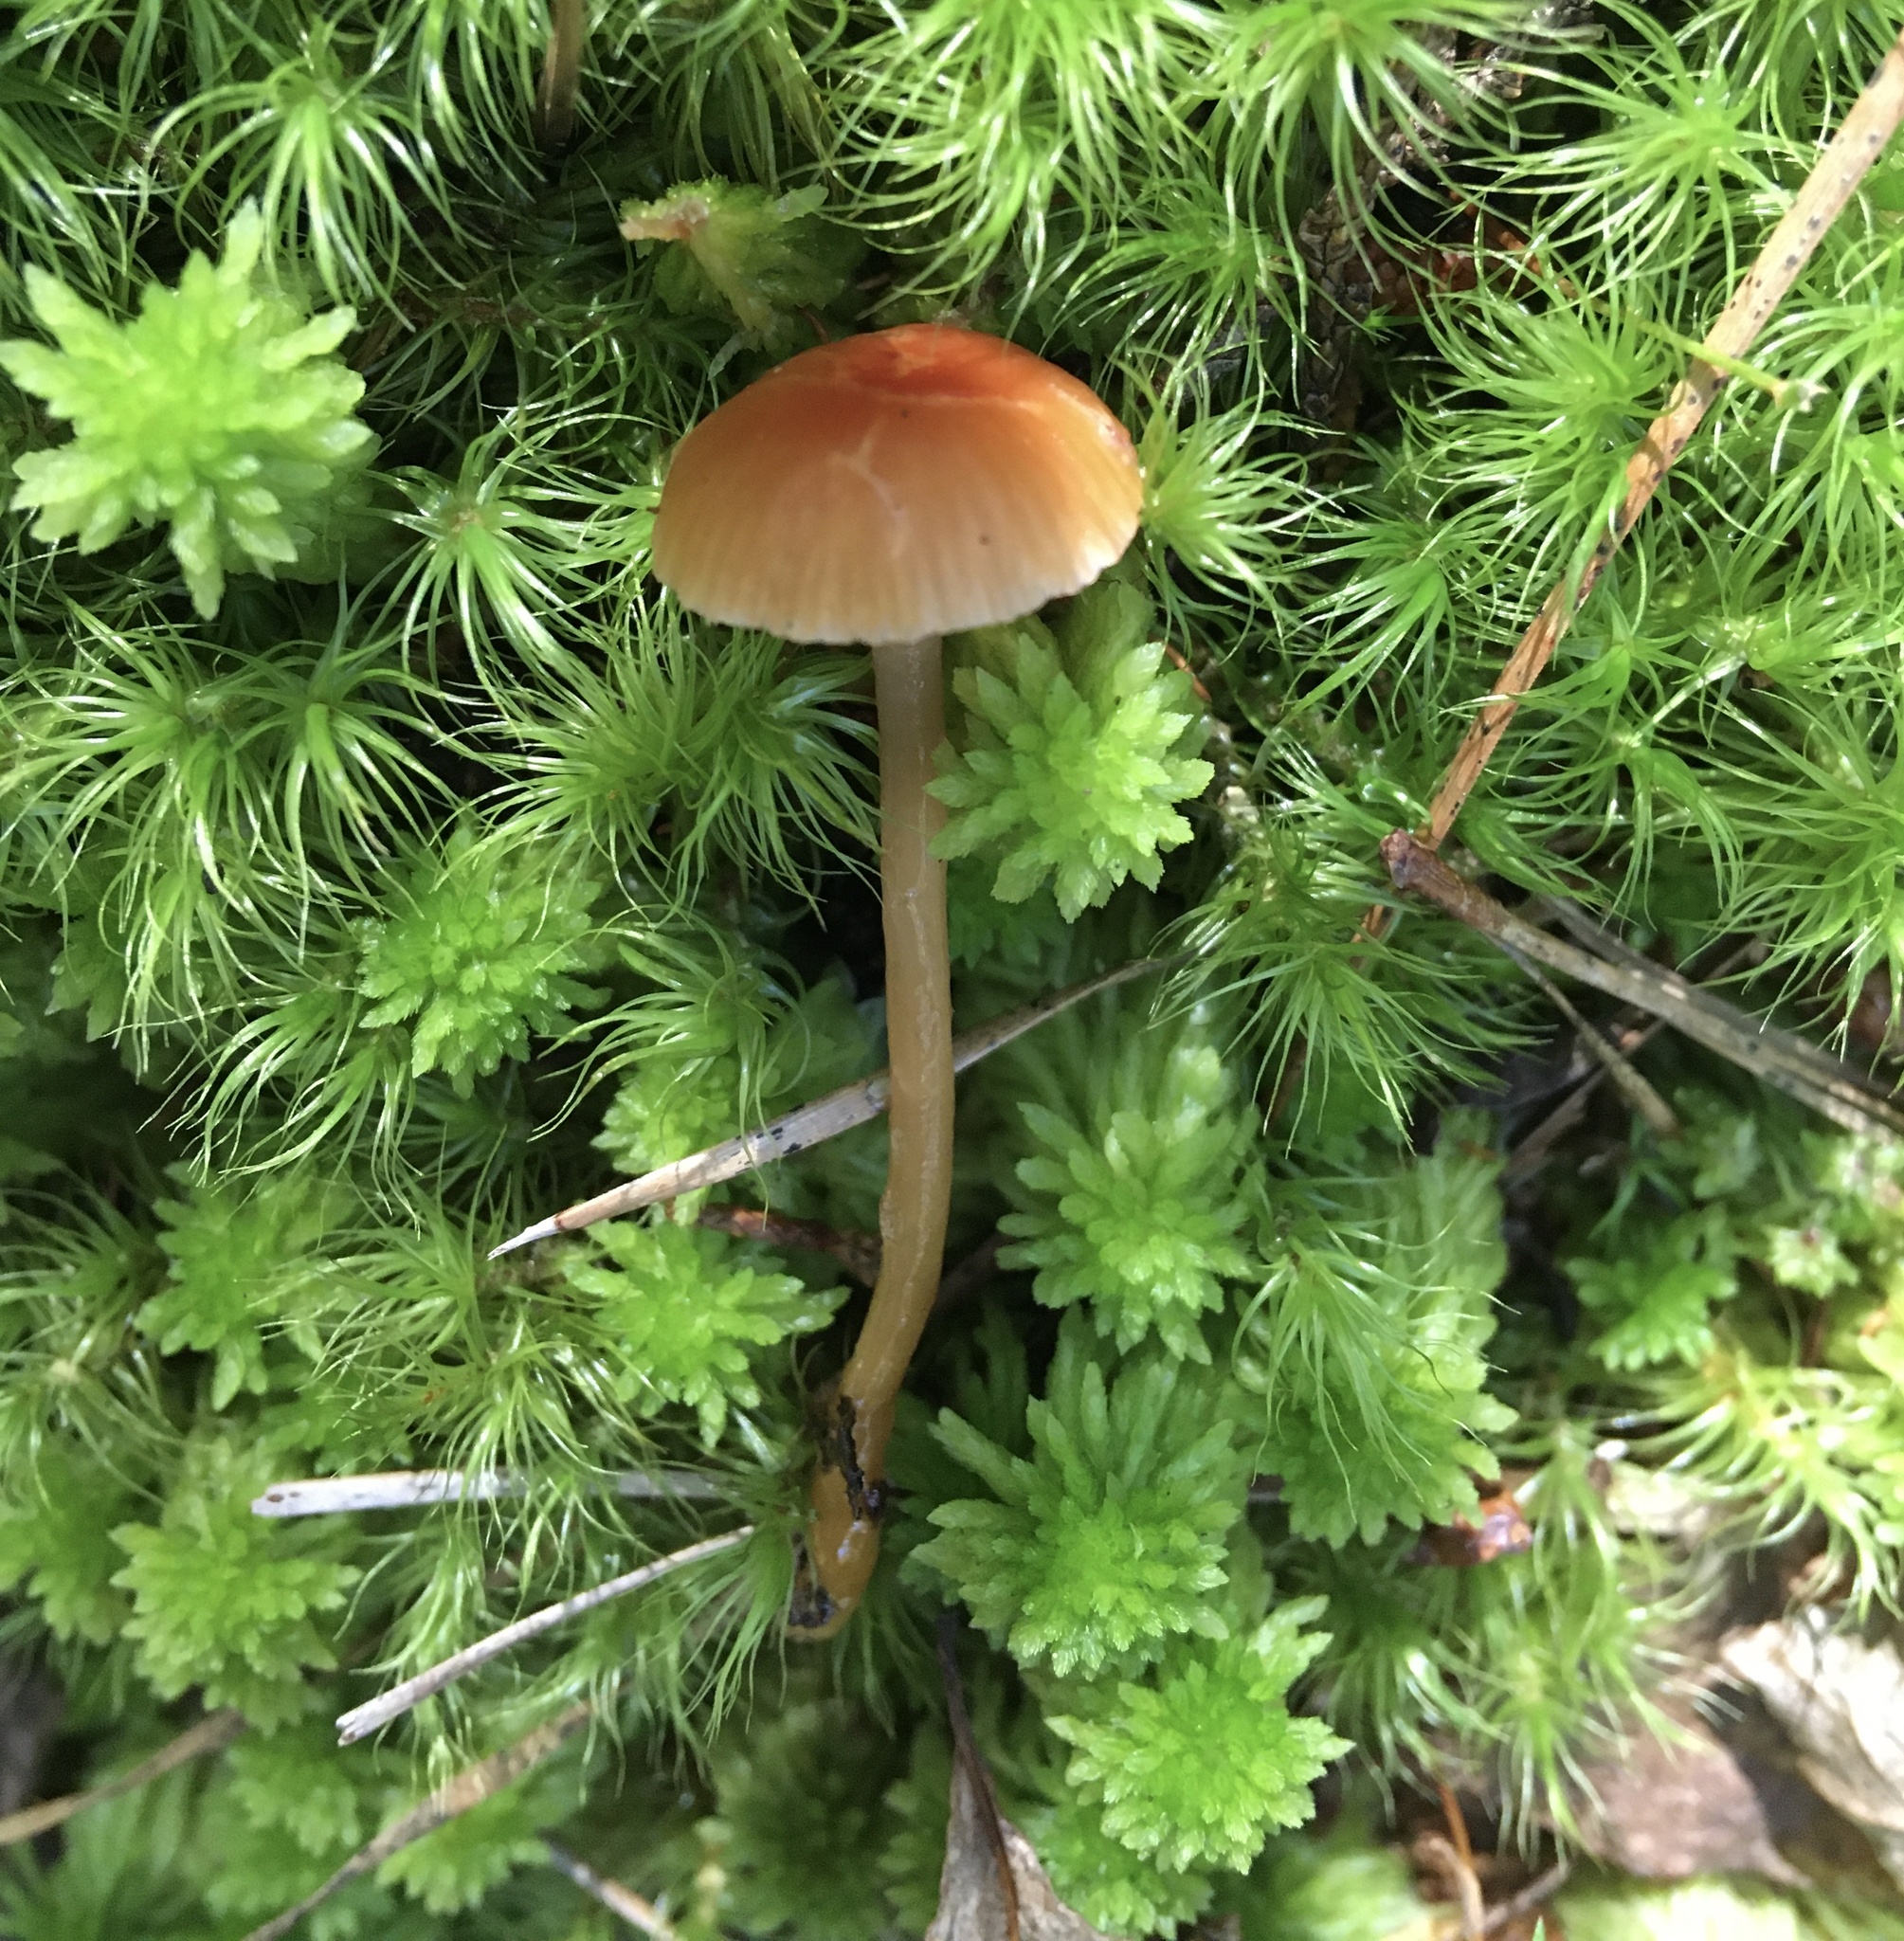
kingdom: Fungi
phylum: Basidiomycota
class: Agaricomycetes
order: Agaricales
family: Hygrophoraceae
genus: Gliophorus
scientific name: Gliophorus laetus
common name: Heath waxcap
